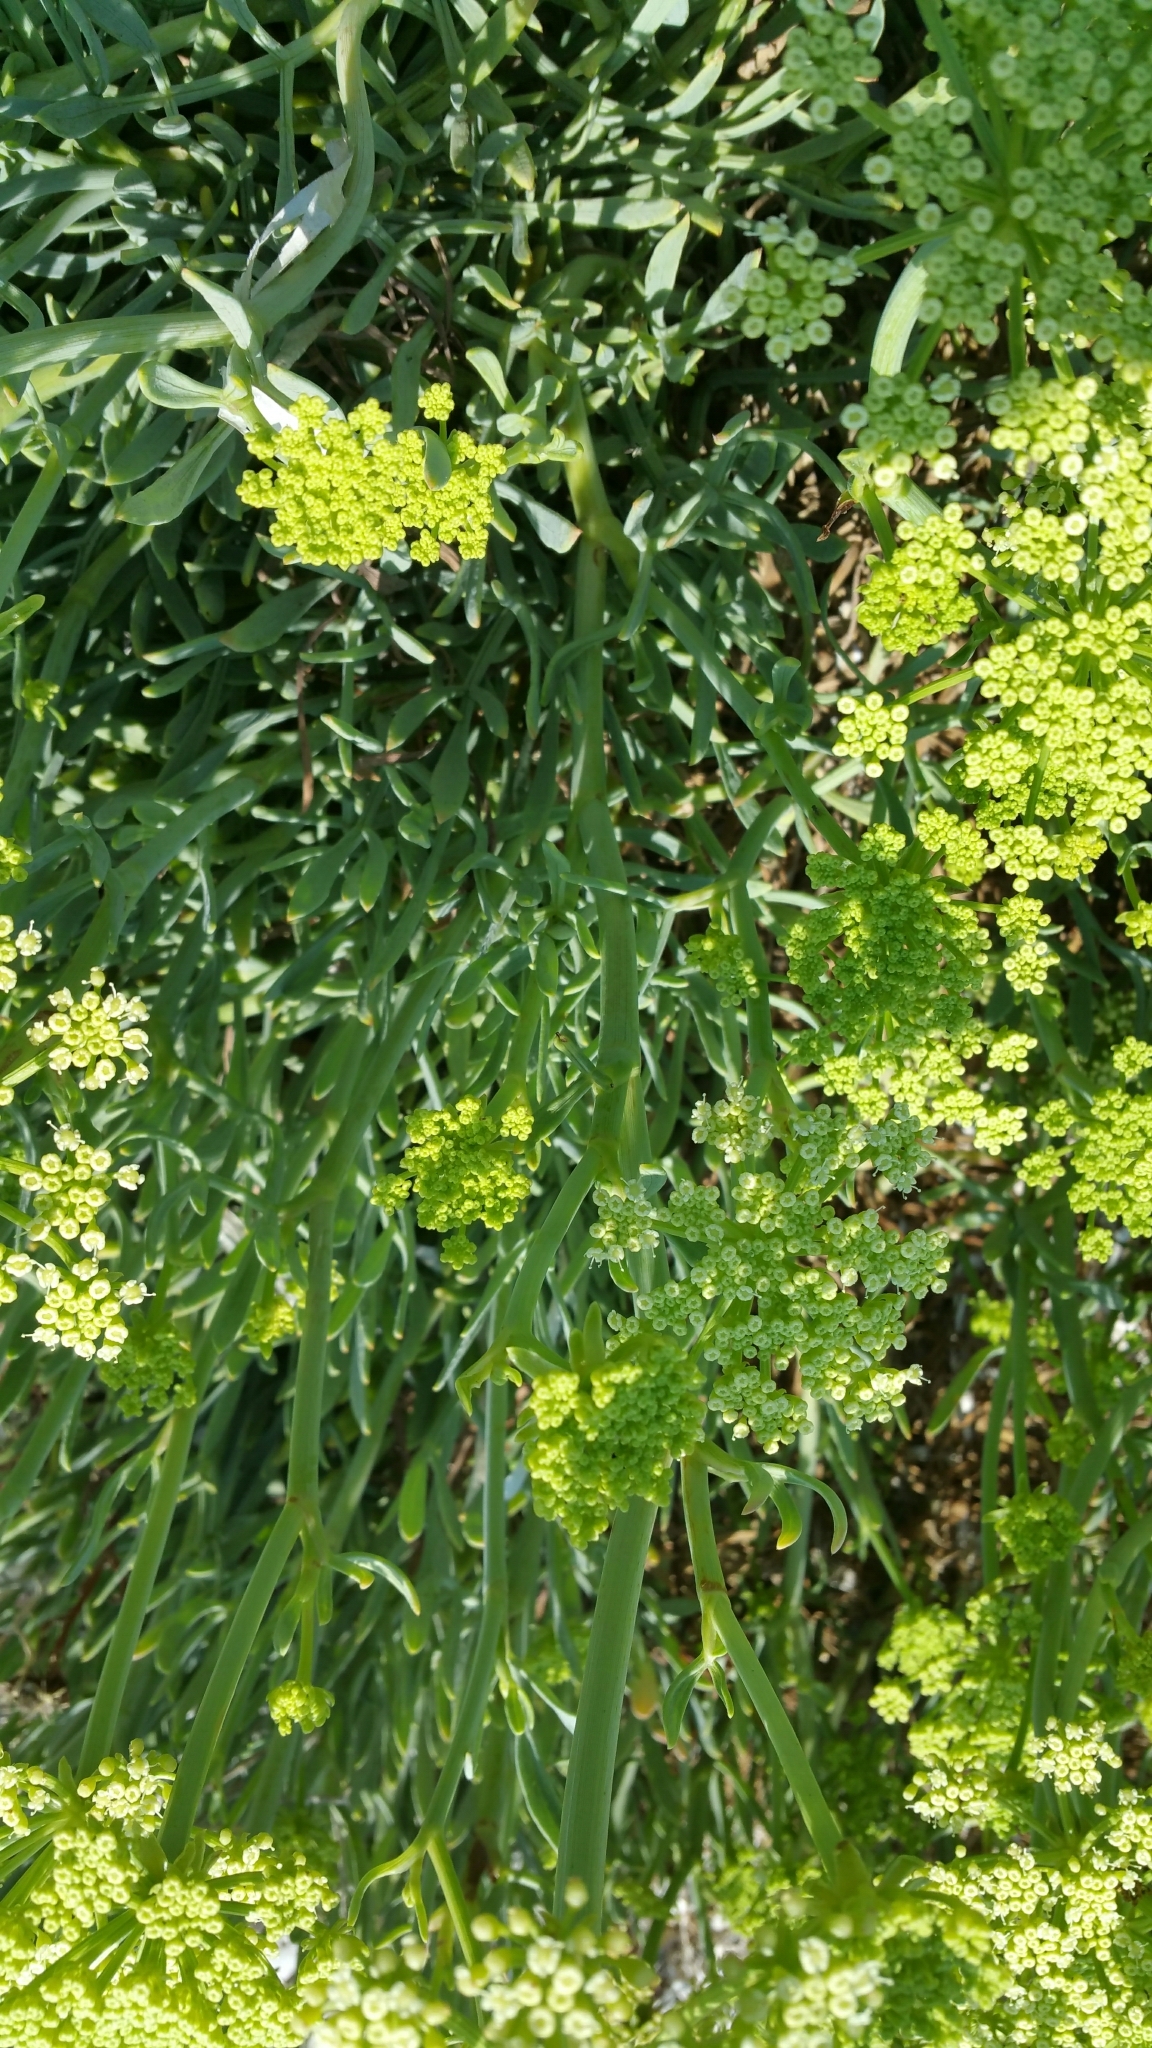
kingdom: Plantae
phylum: Tracheophyta
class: Magnoliopsida
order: Apiales
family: Apiaceae
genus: Crithmum
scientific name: Crithmum maritimum
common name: Rock samphire
